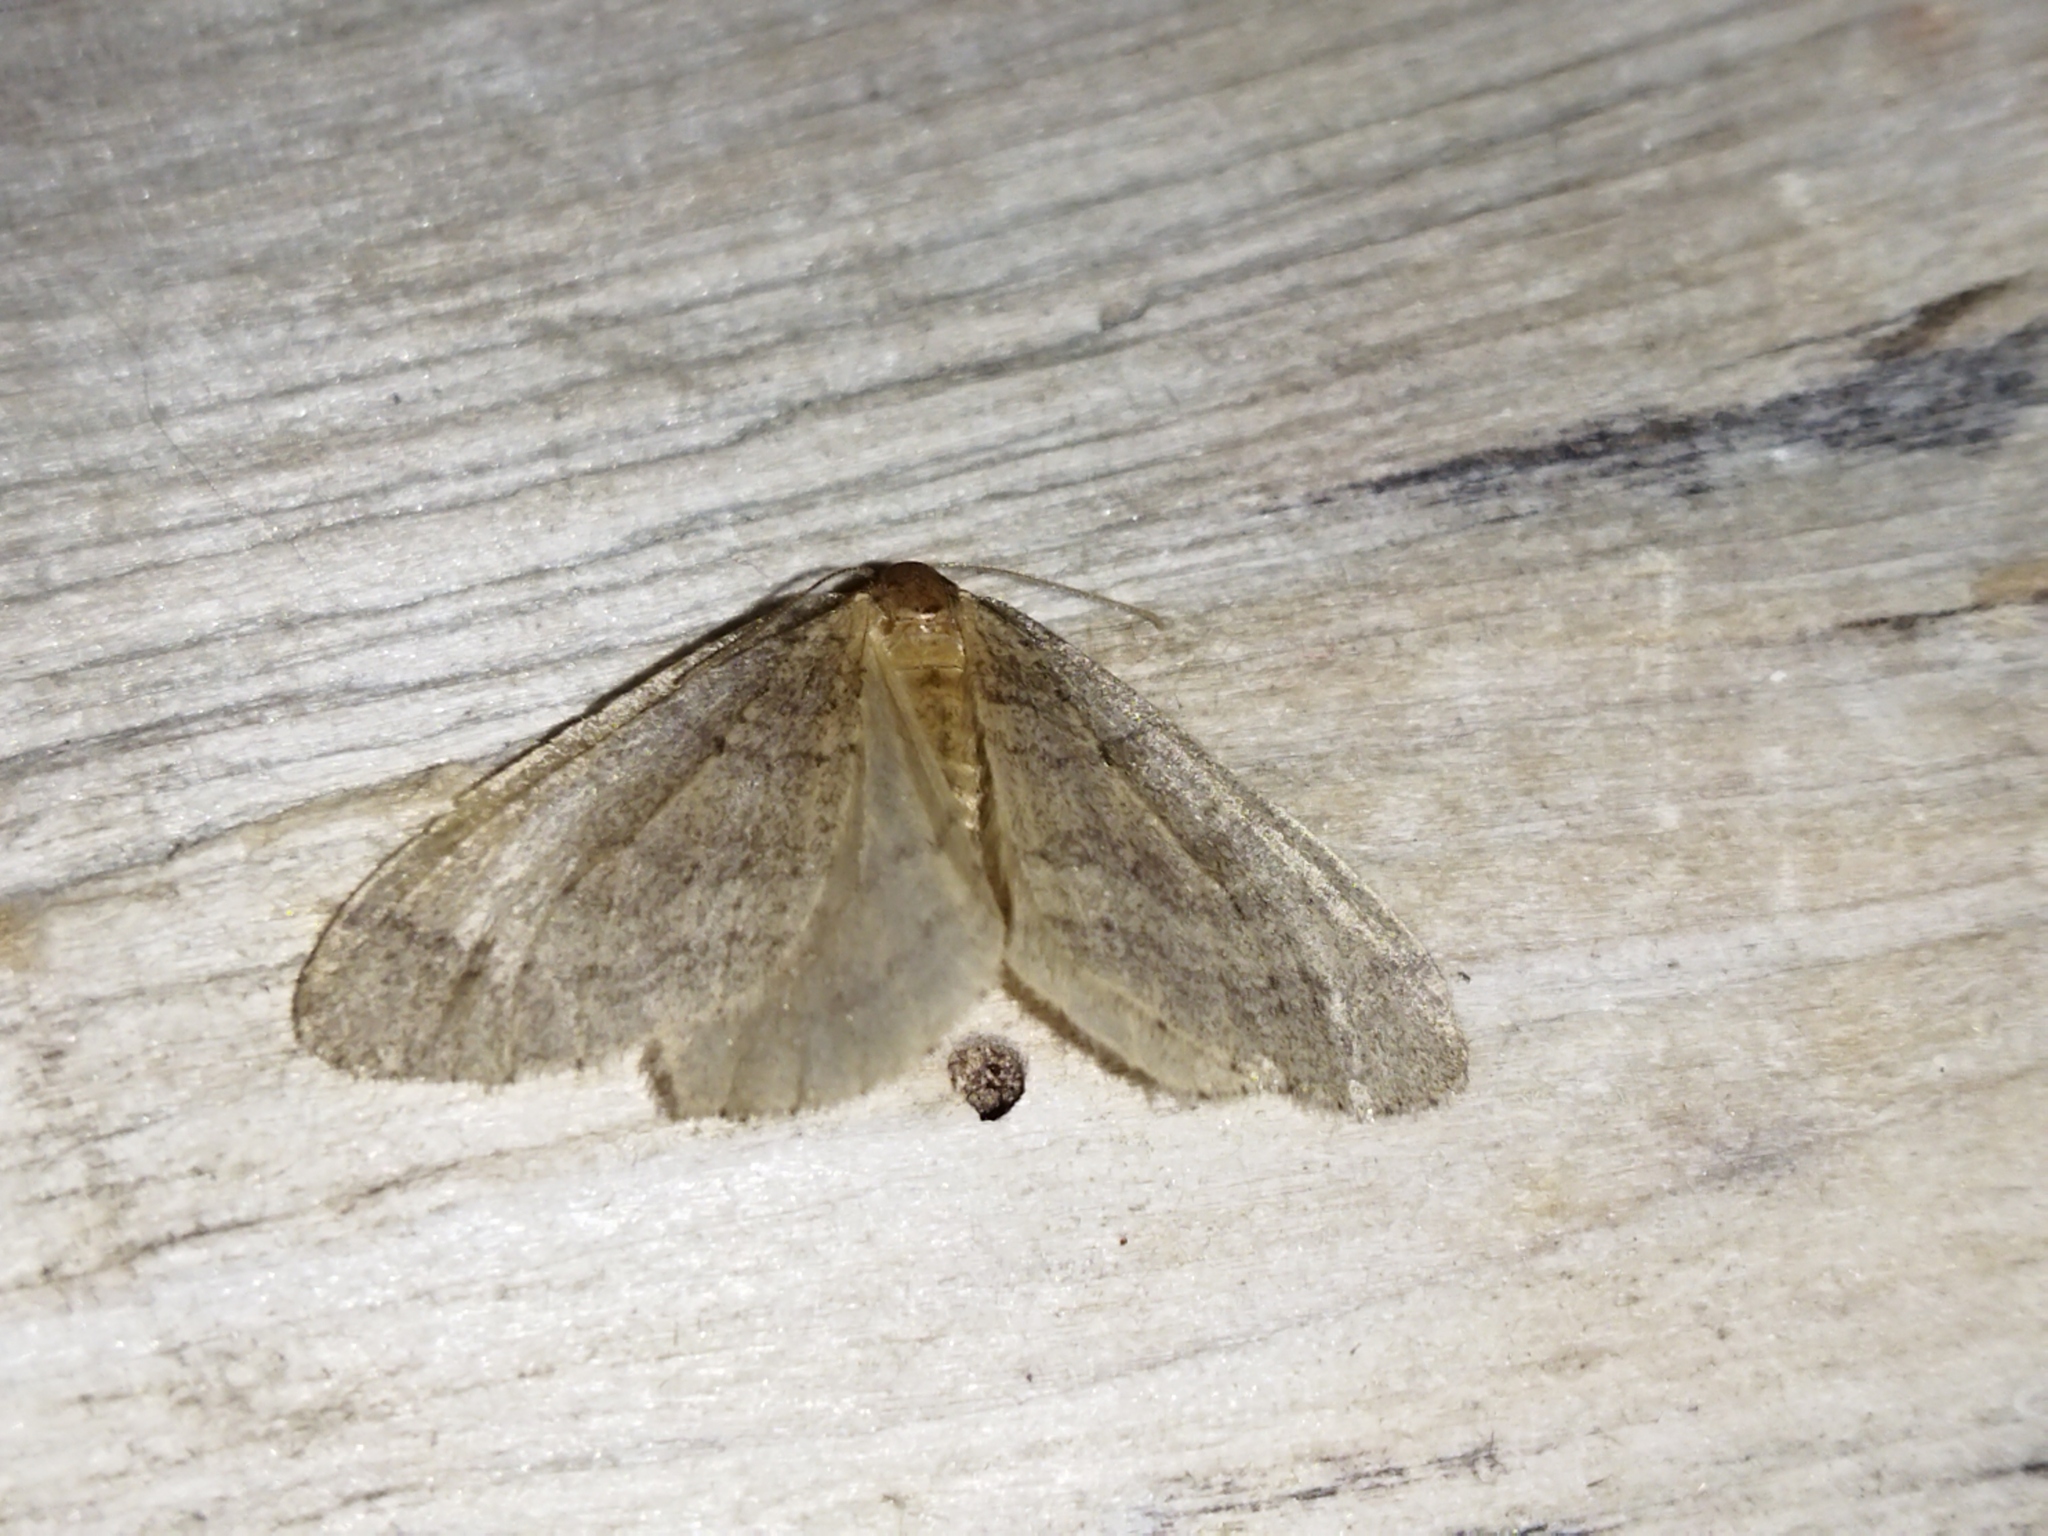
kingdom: Animalia
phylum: Arthropoda
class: Insecta
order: Lepidoptera
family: Geometridae
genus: Operophtera
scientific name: Operophtera brumata
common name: Winter moth
